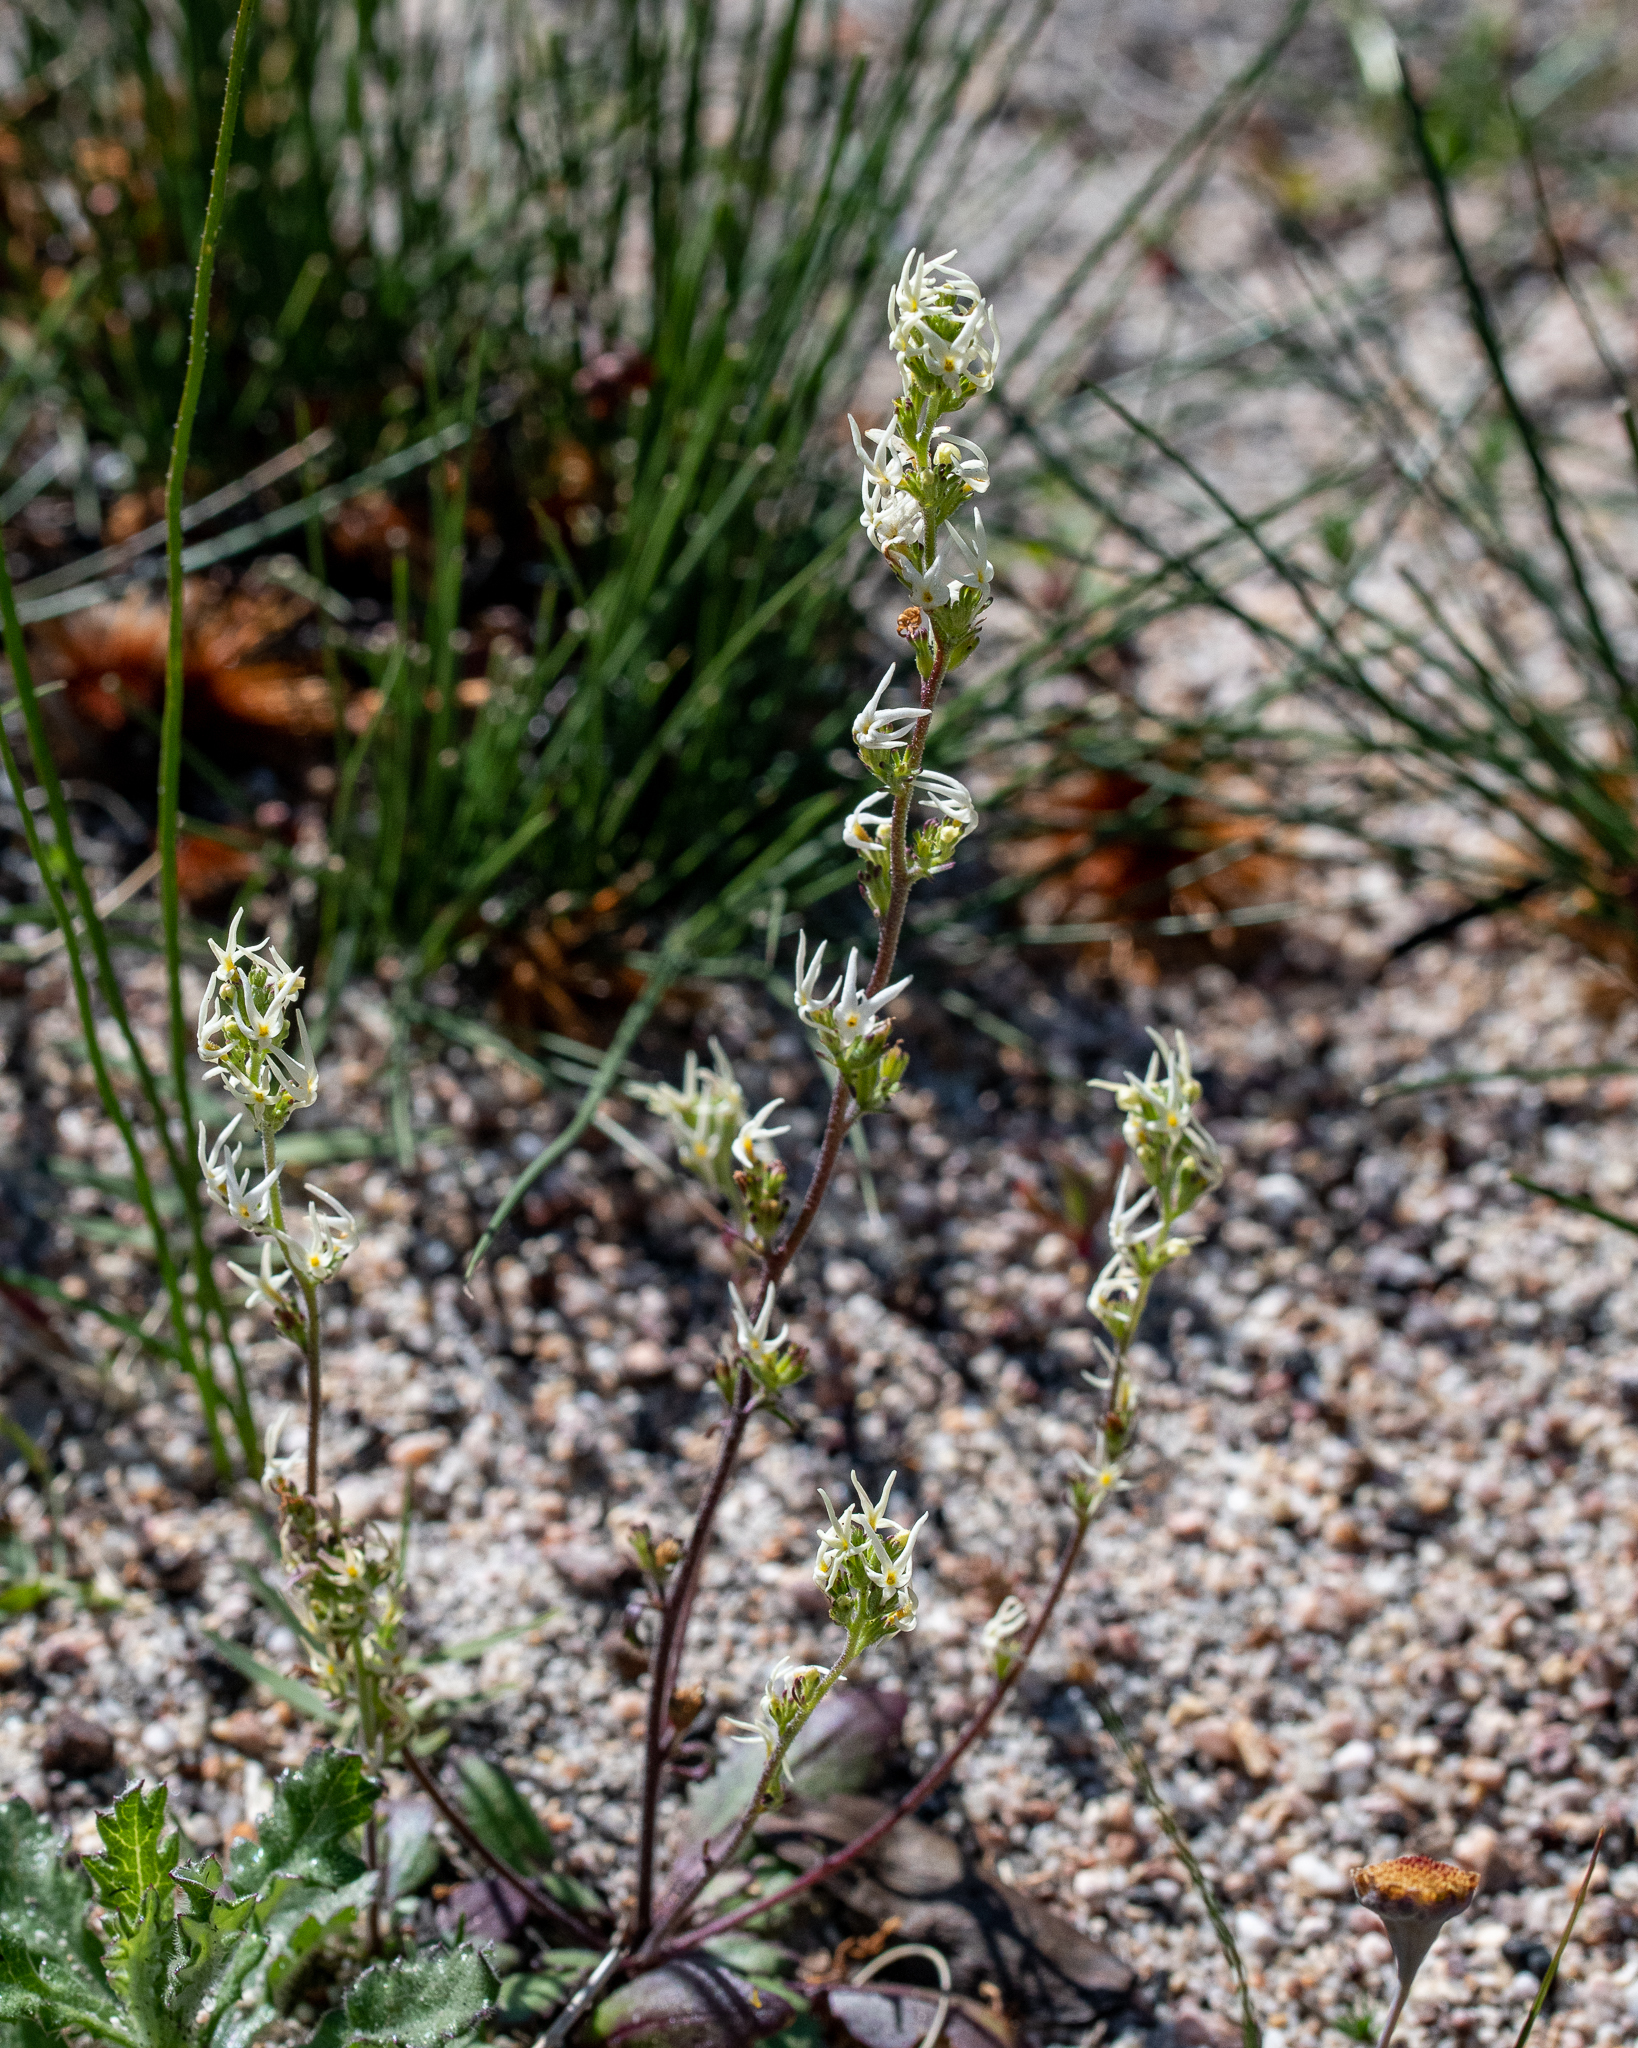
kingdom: Plantae
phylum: Tracheophyta
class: Magnoliopsida
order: Lamiales
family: Scrophulariaceae
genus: Manulea
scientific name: Manulea cheiranthus
